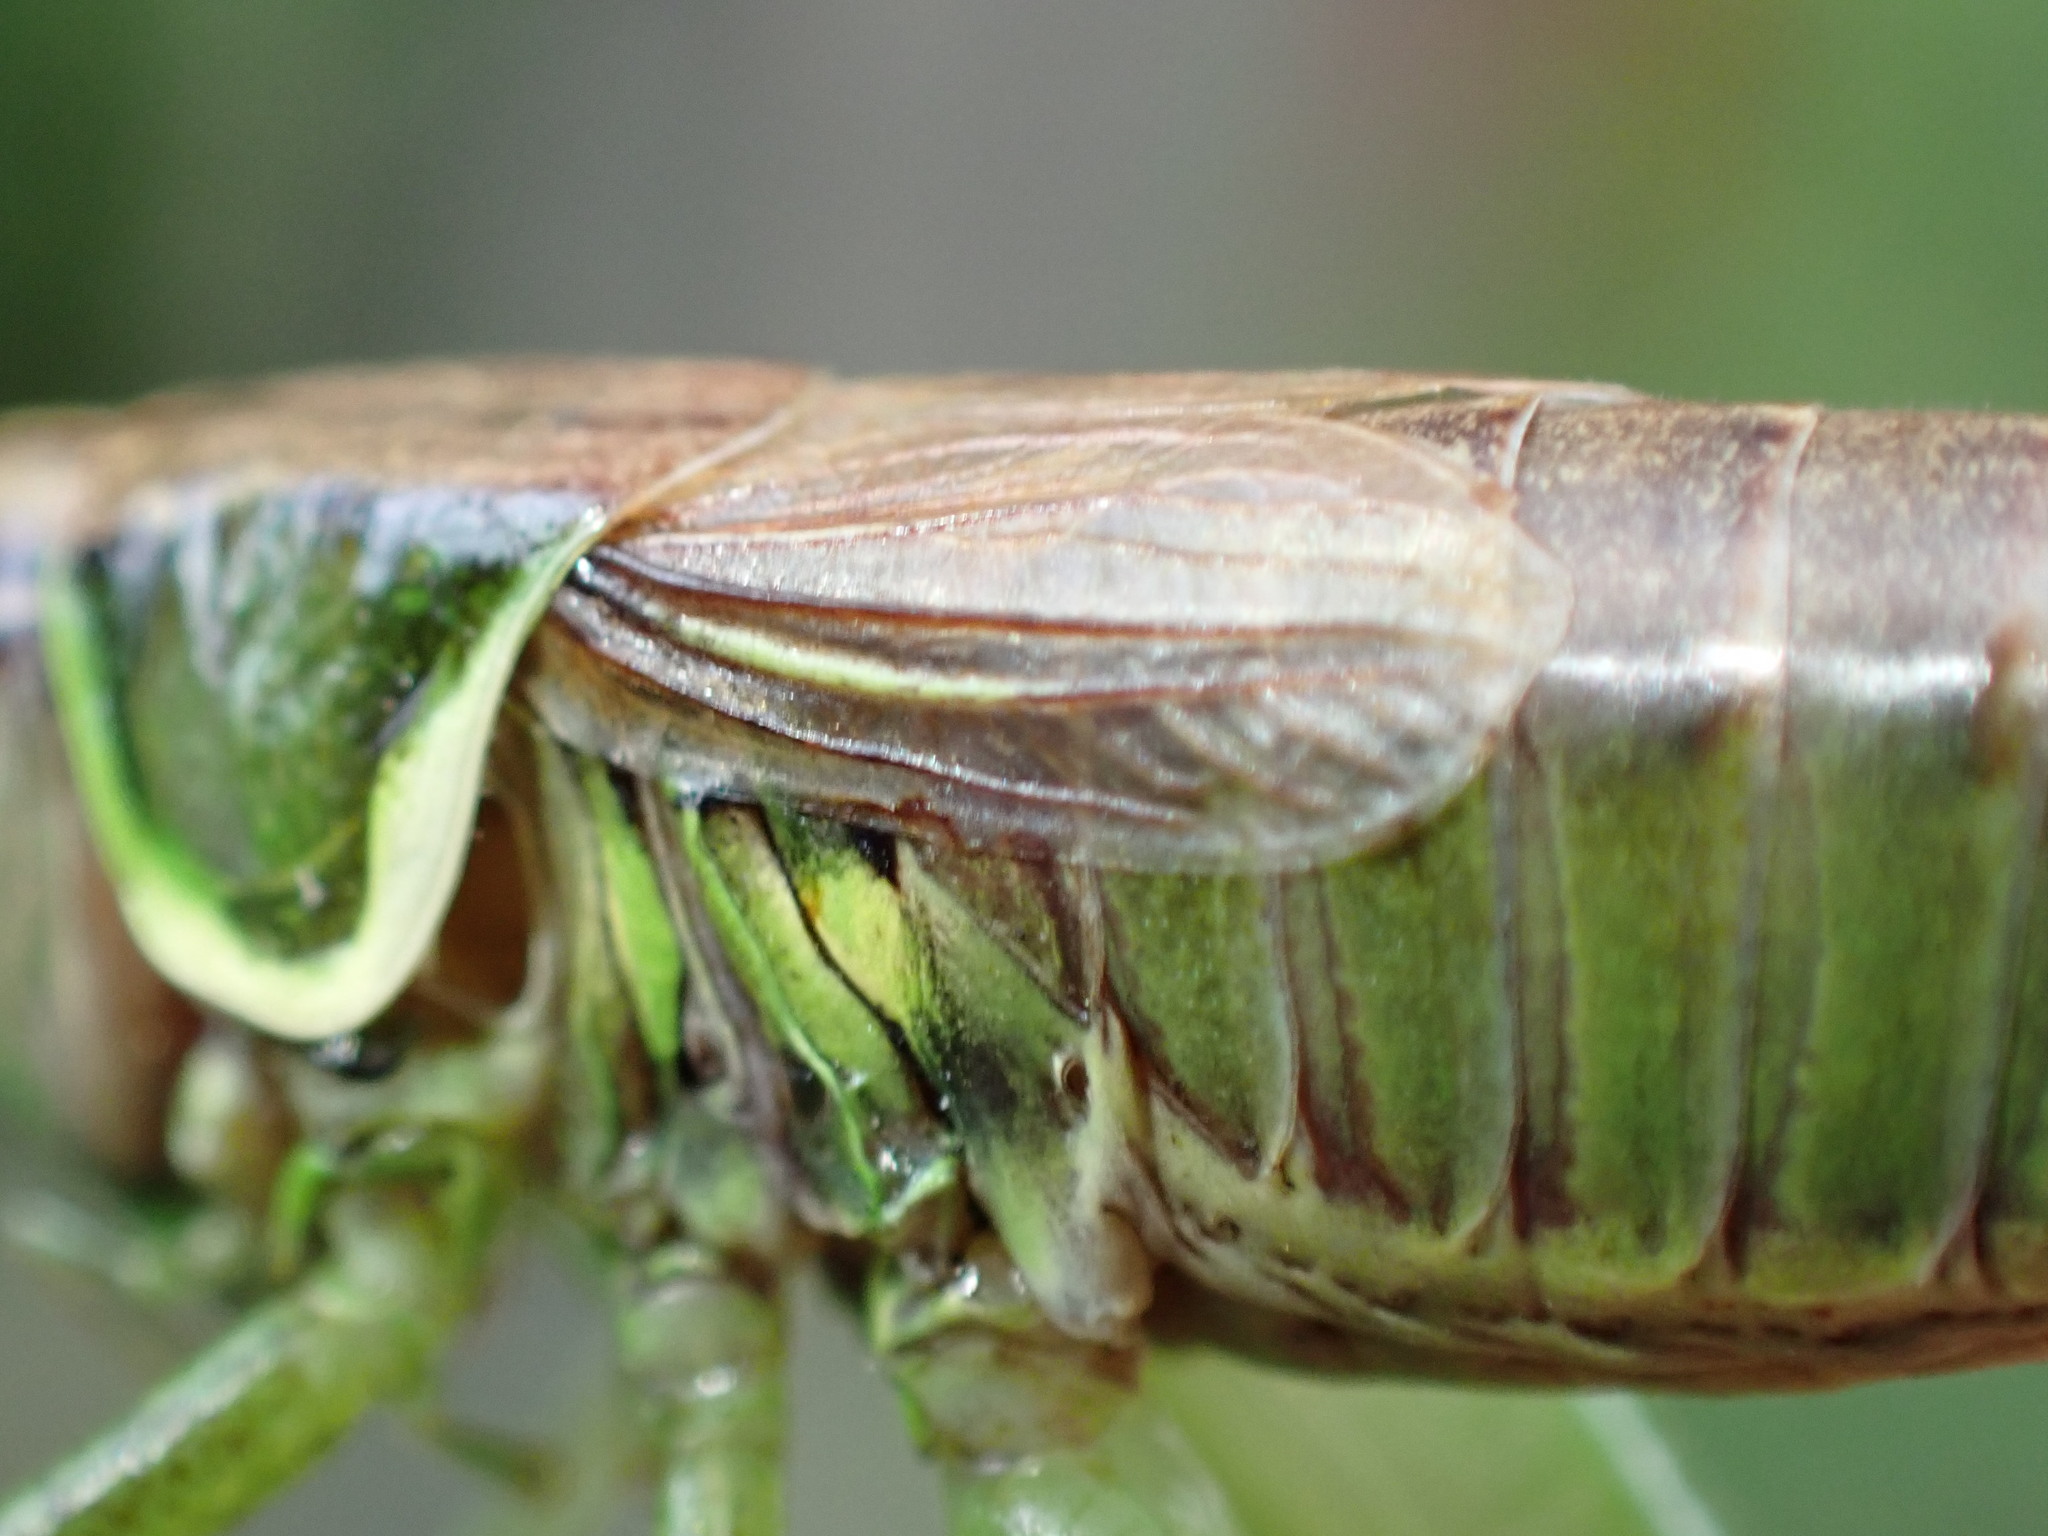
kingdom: Animalia
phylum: Arthropoda
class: Insecta
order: Orthoptera
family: Tettigoniidae
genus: Roeseliana
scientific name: Roeseliana roeselii
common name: Roesel's bush cricket
